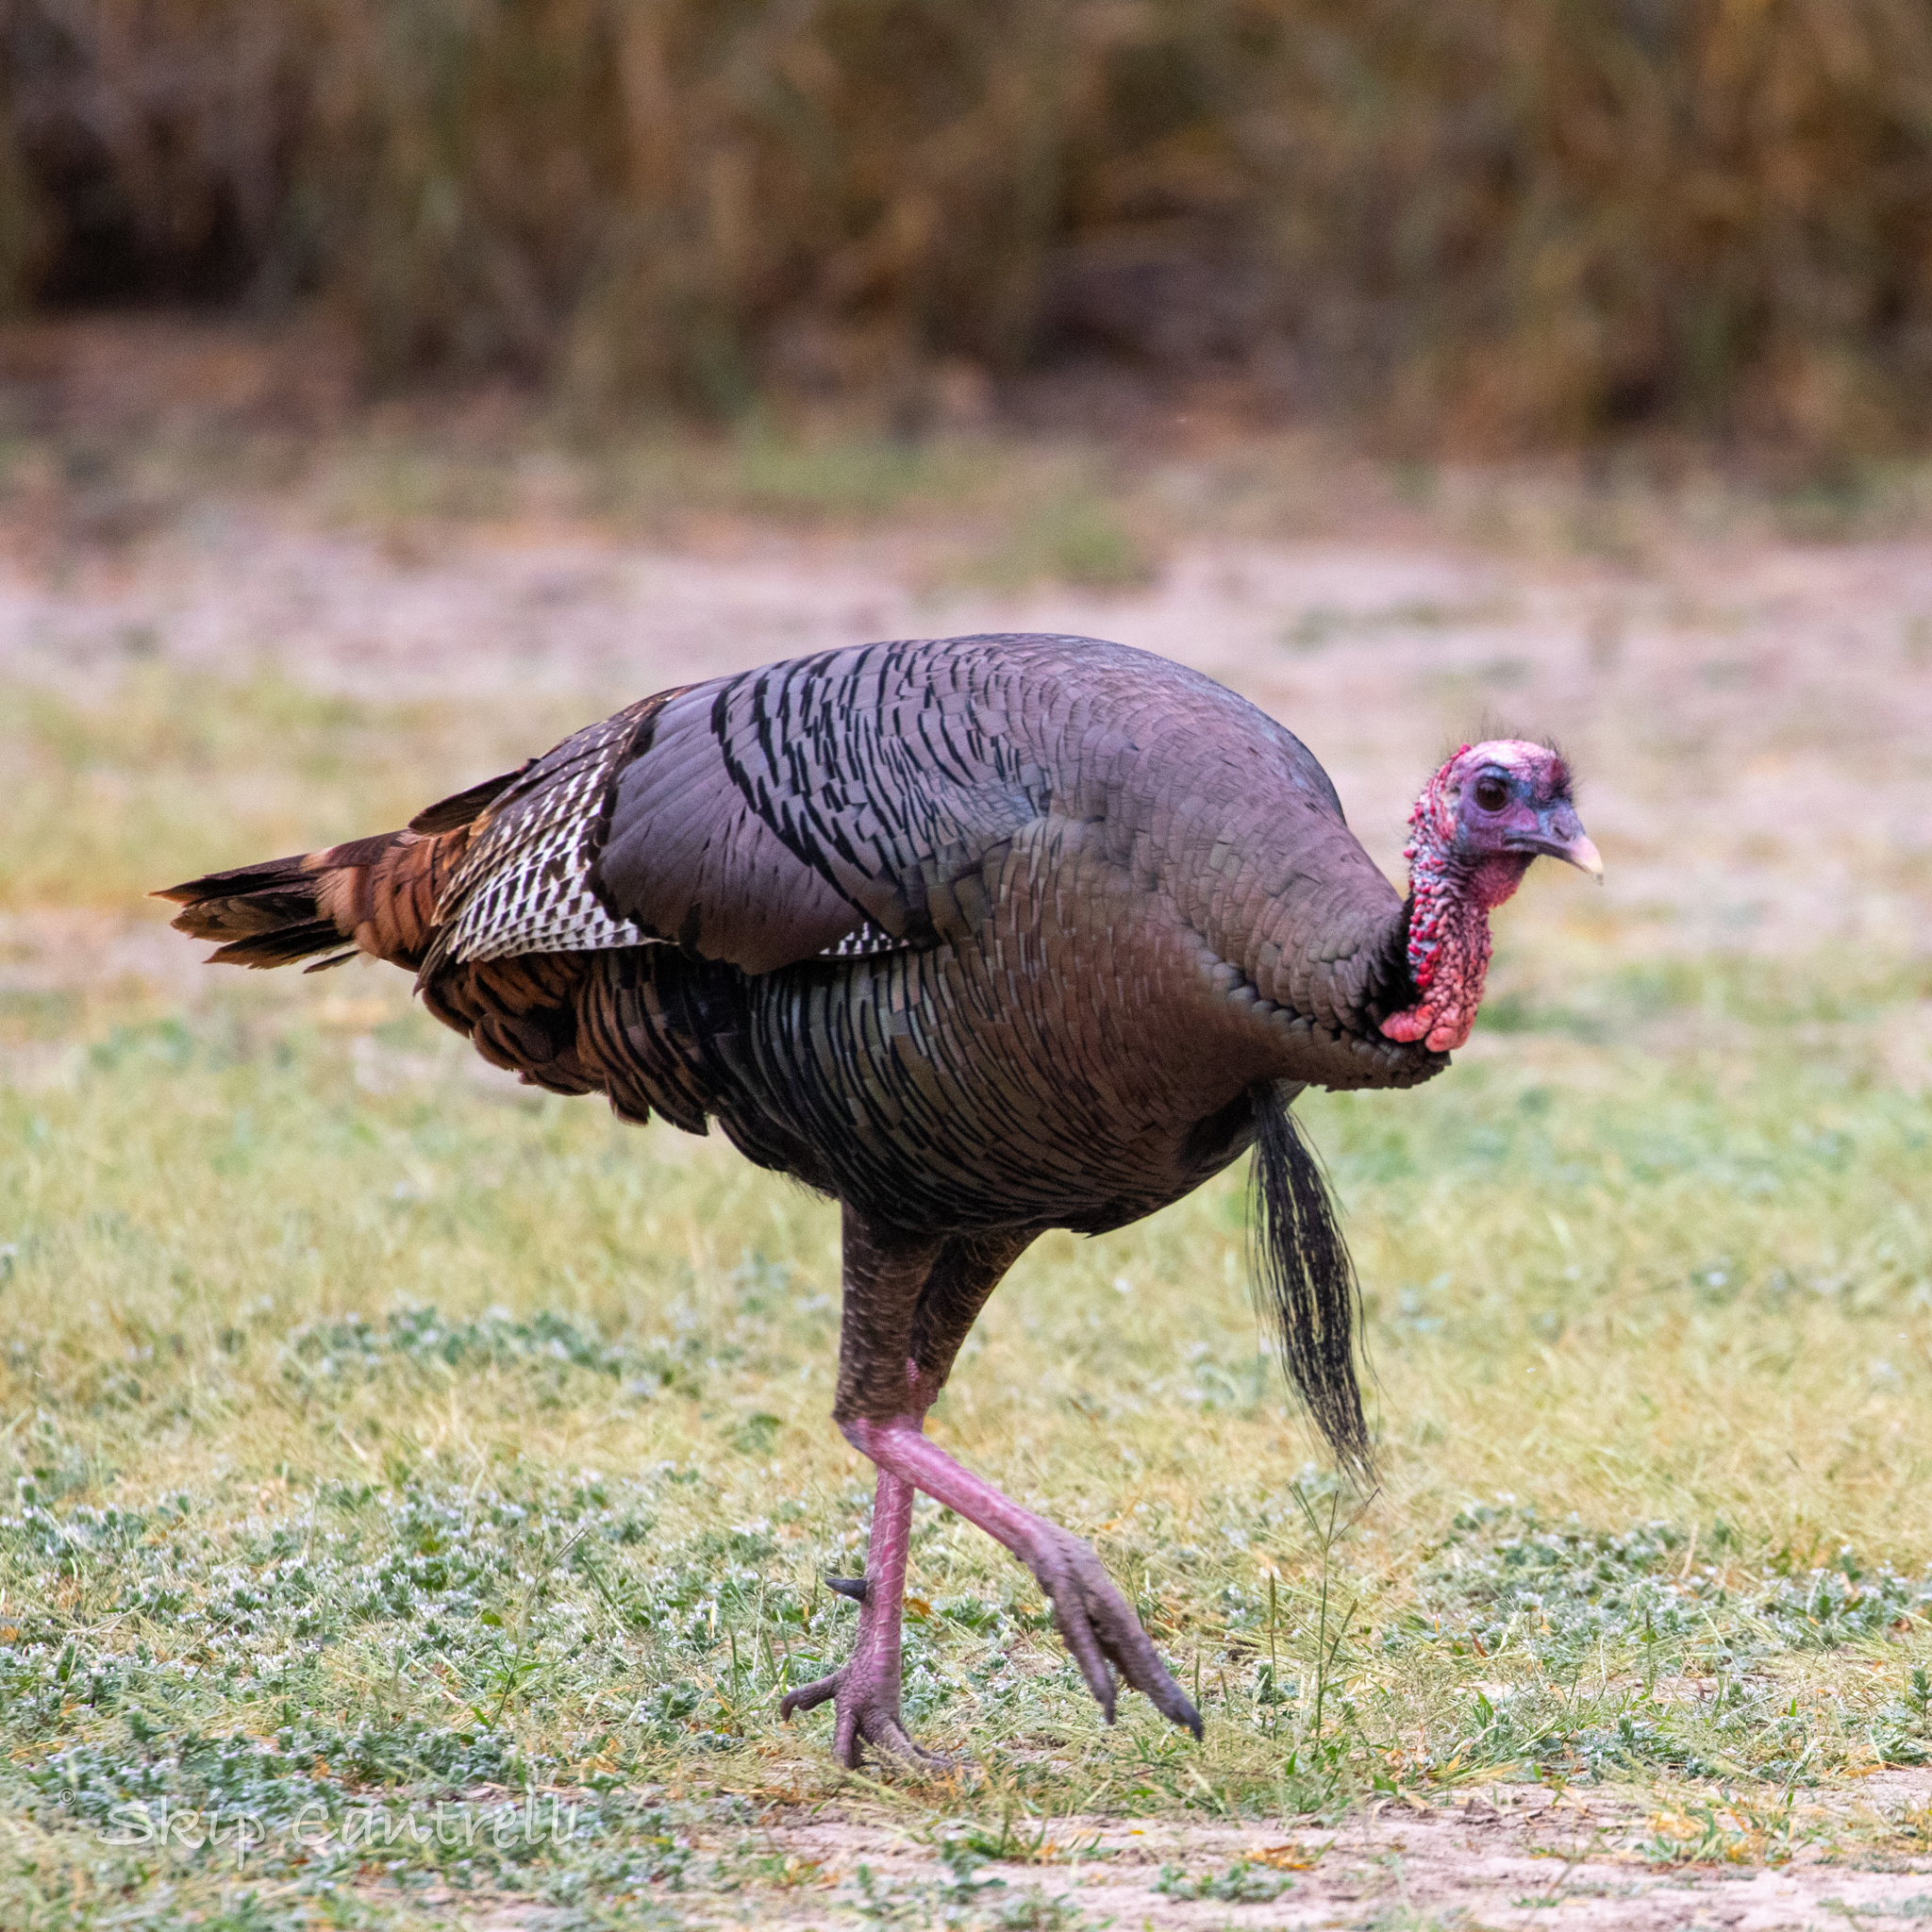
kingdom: Animalia
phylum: Chordata
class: Aves
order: Galliformes
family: Phasianidae
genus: Meleagris
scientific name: Meleagris gallopavo
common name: Wild turkey
